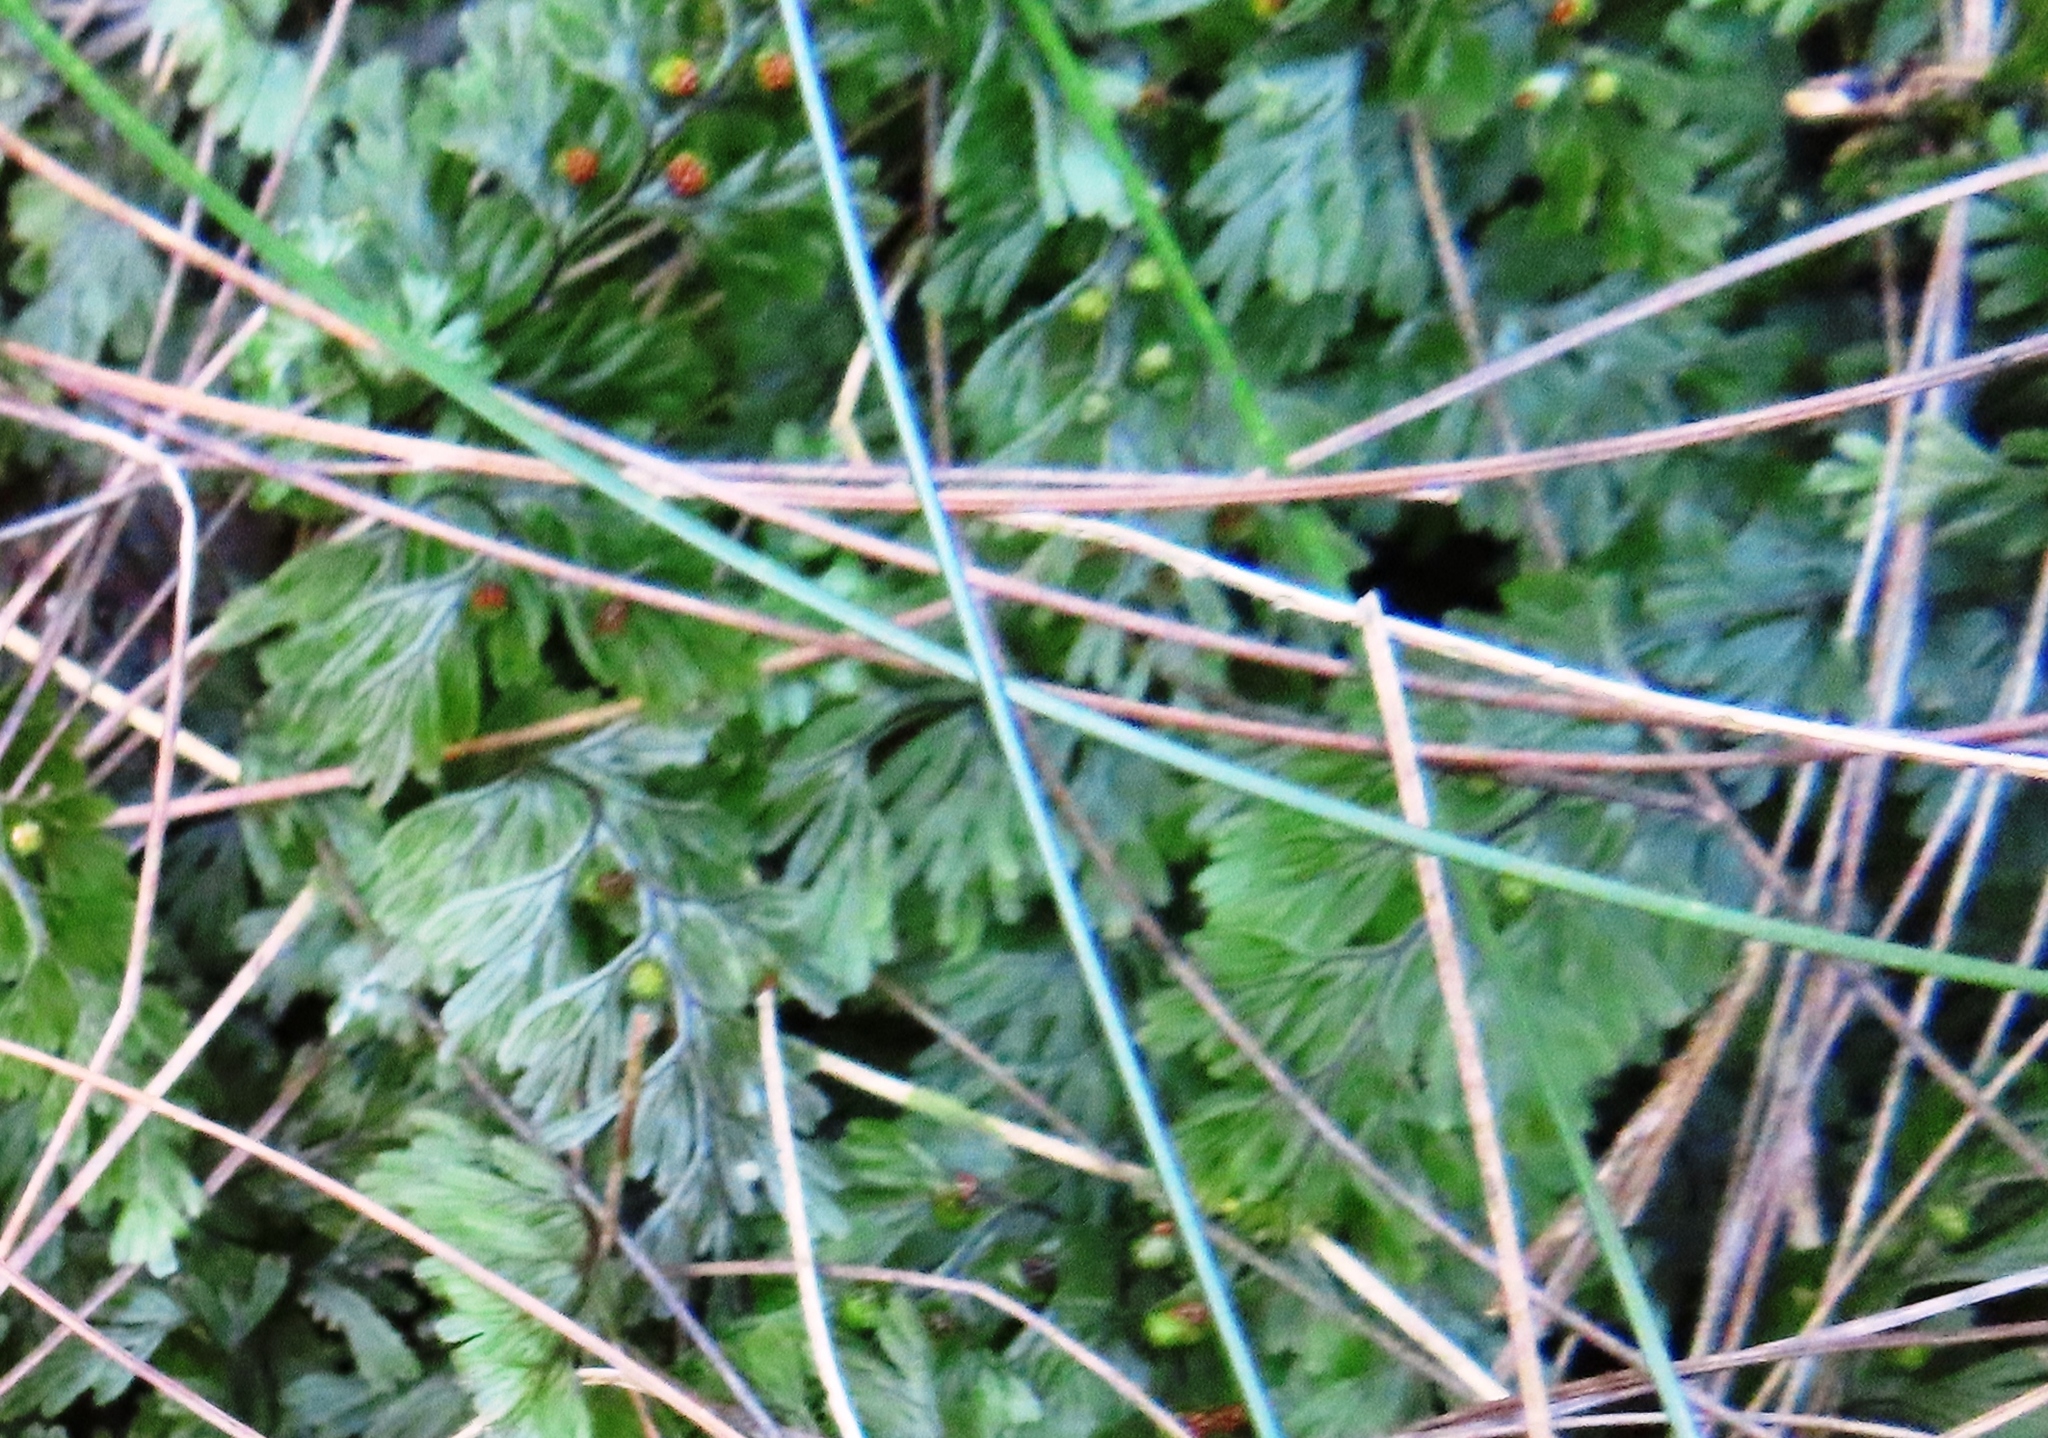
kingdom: Plantae
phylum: Tracheophyta
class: Polypodiopsida
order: Hymenophyllales
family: Hymenophyllaceae
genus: Hymenophyllum
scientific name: Hymenophyllum tunbrigense
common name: Tunbridge filmy fern
